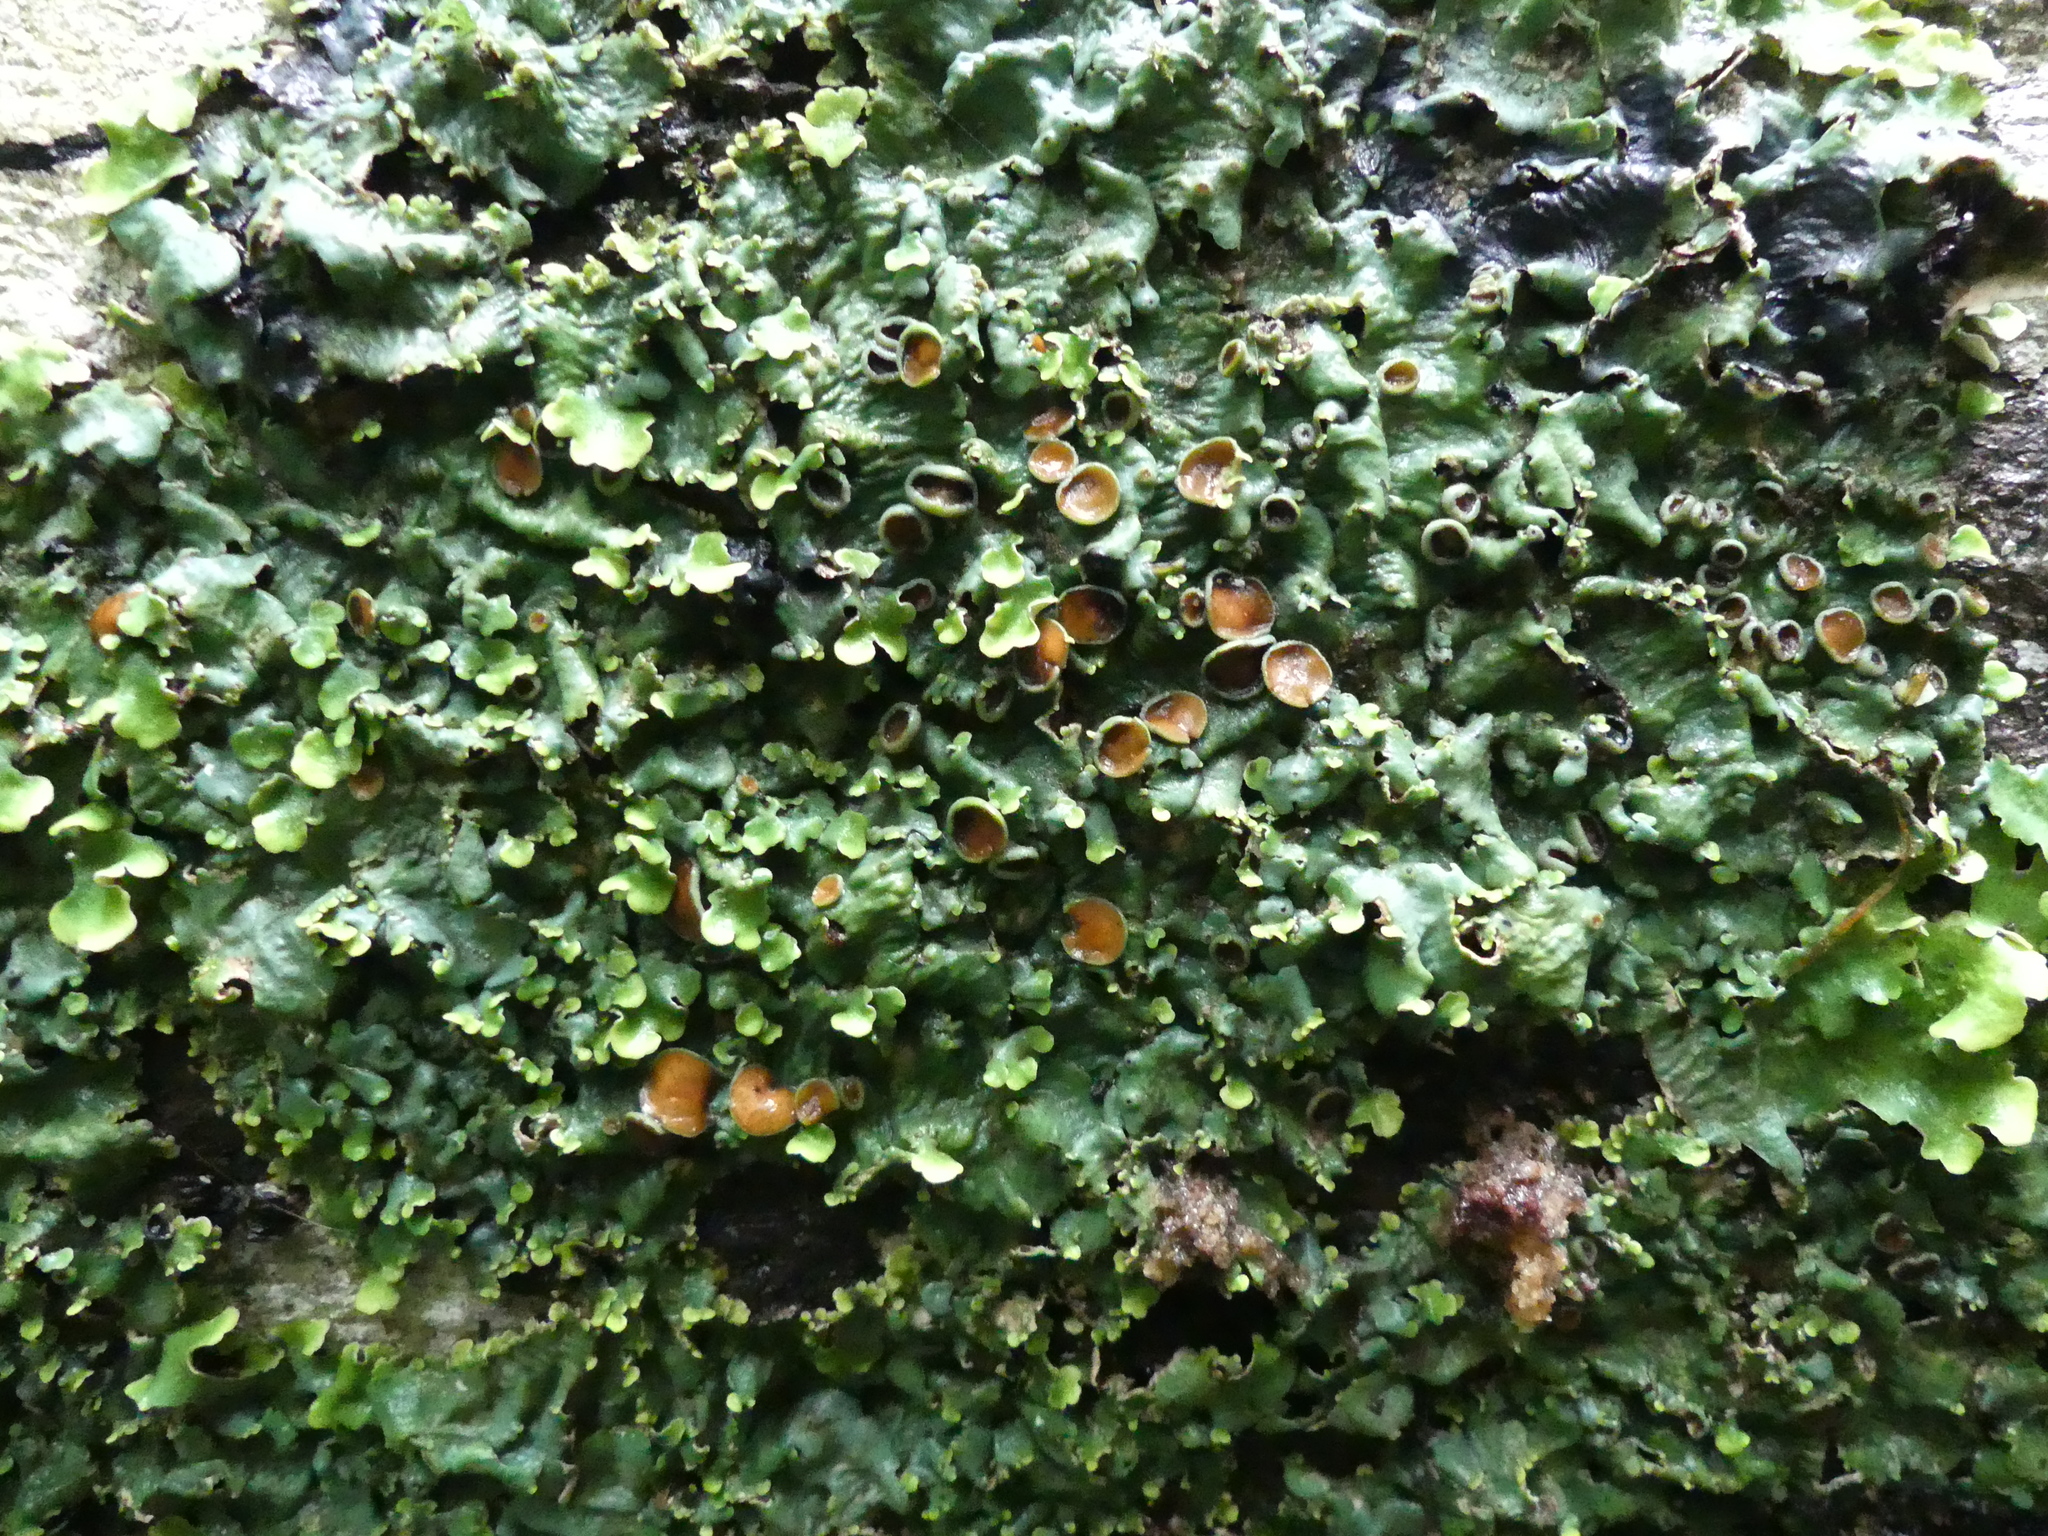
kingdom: Fungi
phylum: Ascomycota
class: Lecanoromycetes
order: Peltigerales
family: Lobariaceae
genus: Ricasolia
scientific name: Ricasolia quercizans
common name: Smooth lungwort
